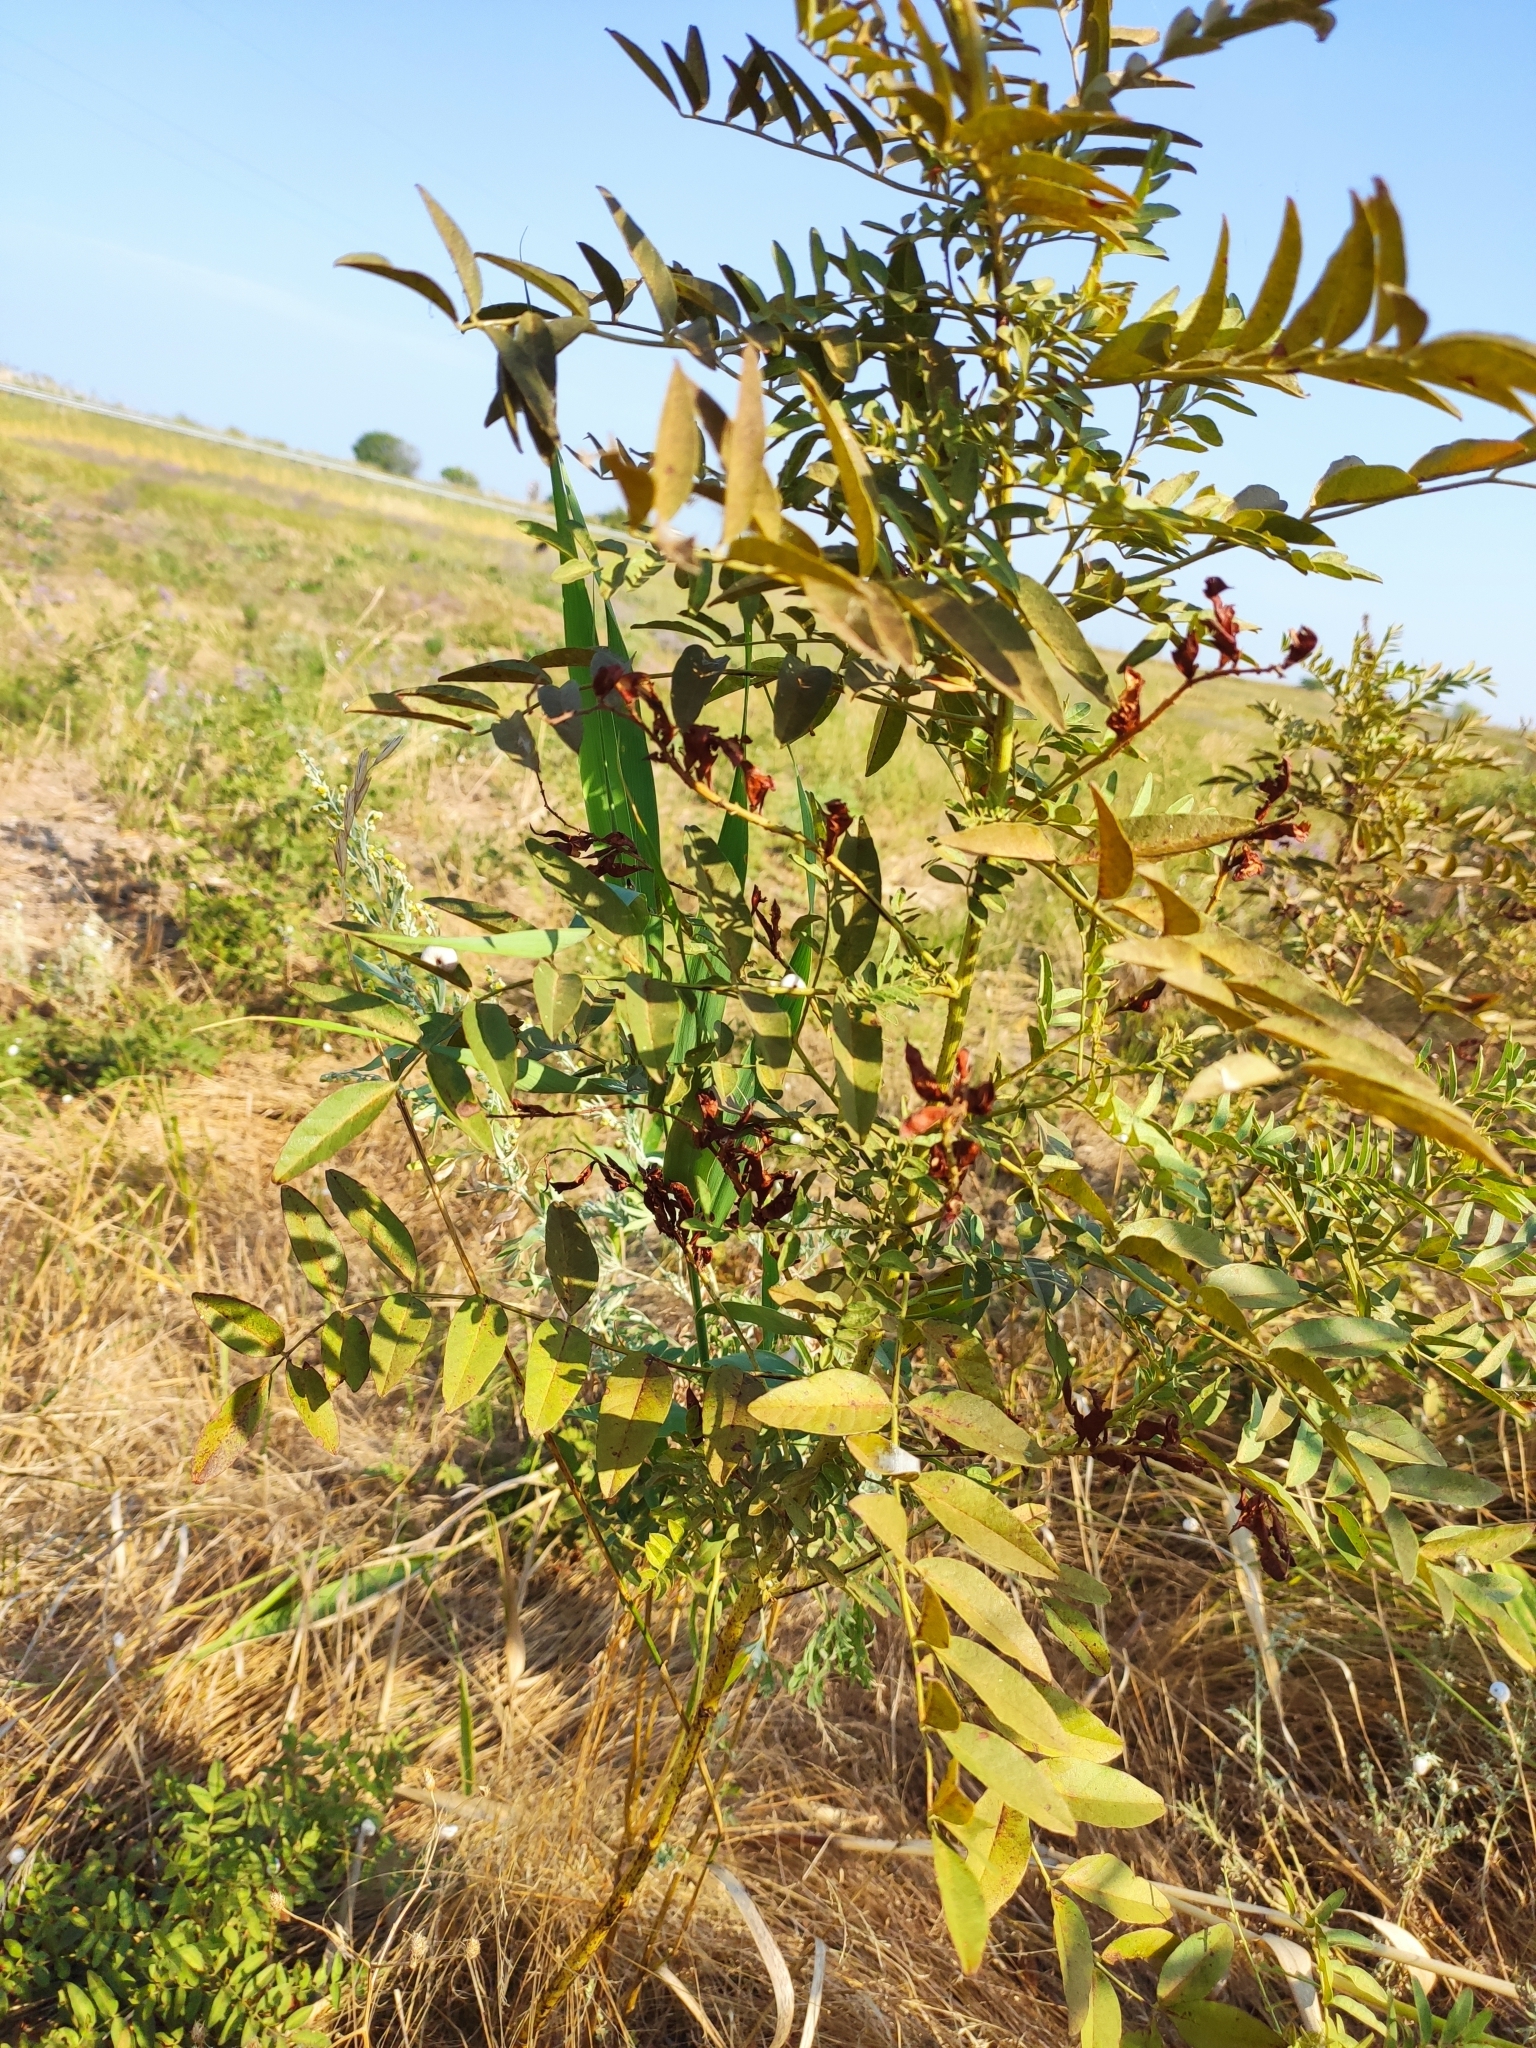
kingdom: Plantae
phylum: Tracheophyta
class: Magnoliopsida
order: Fabales
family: Fabaceae
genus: Glycyrrhiza
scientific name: Glycyrrhiza glabra
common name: Liquorice
